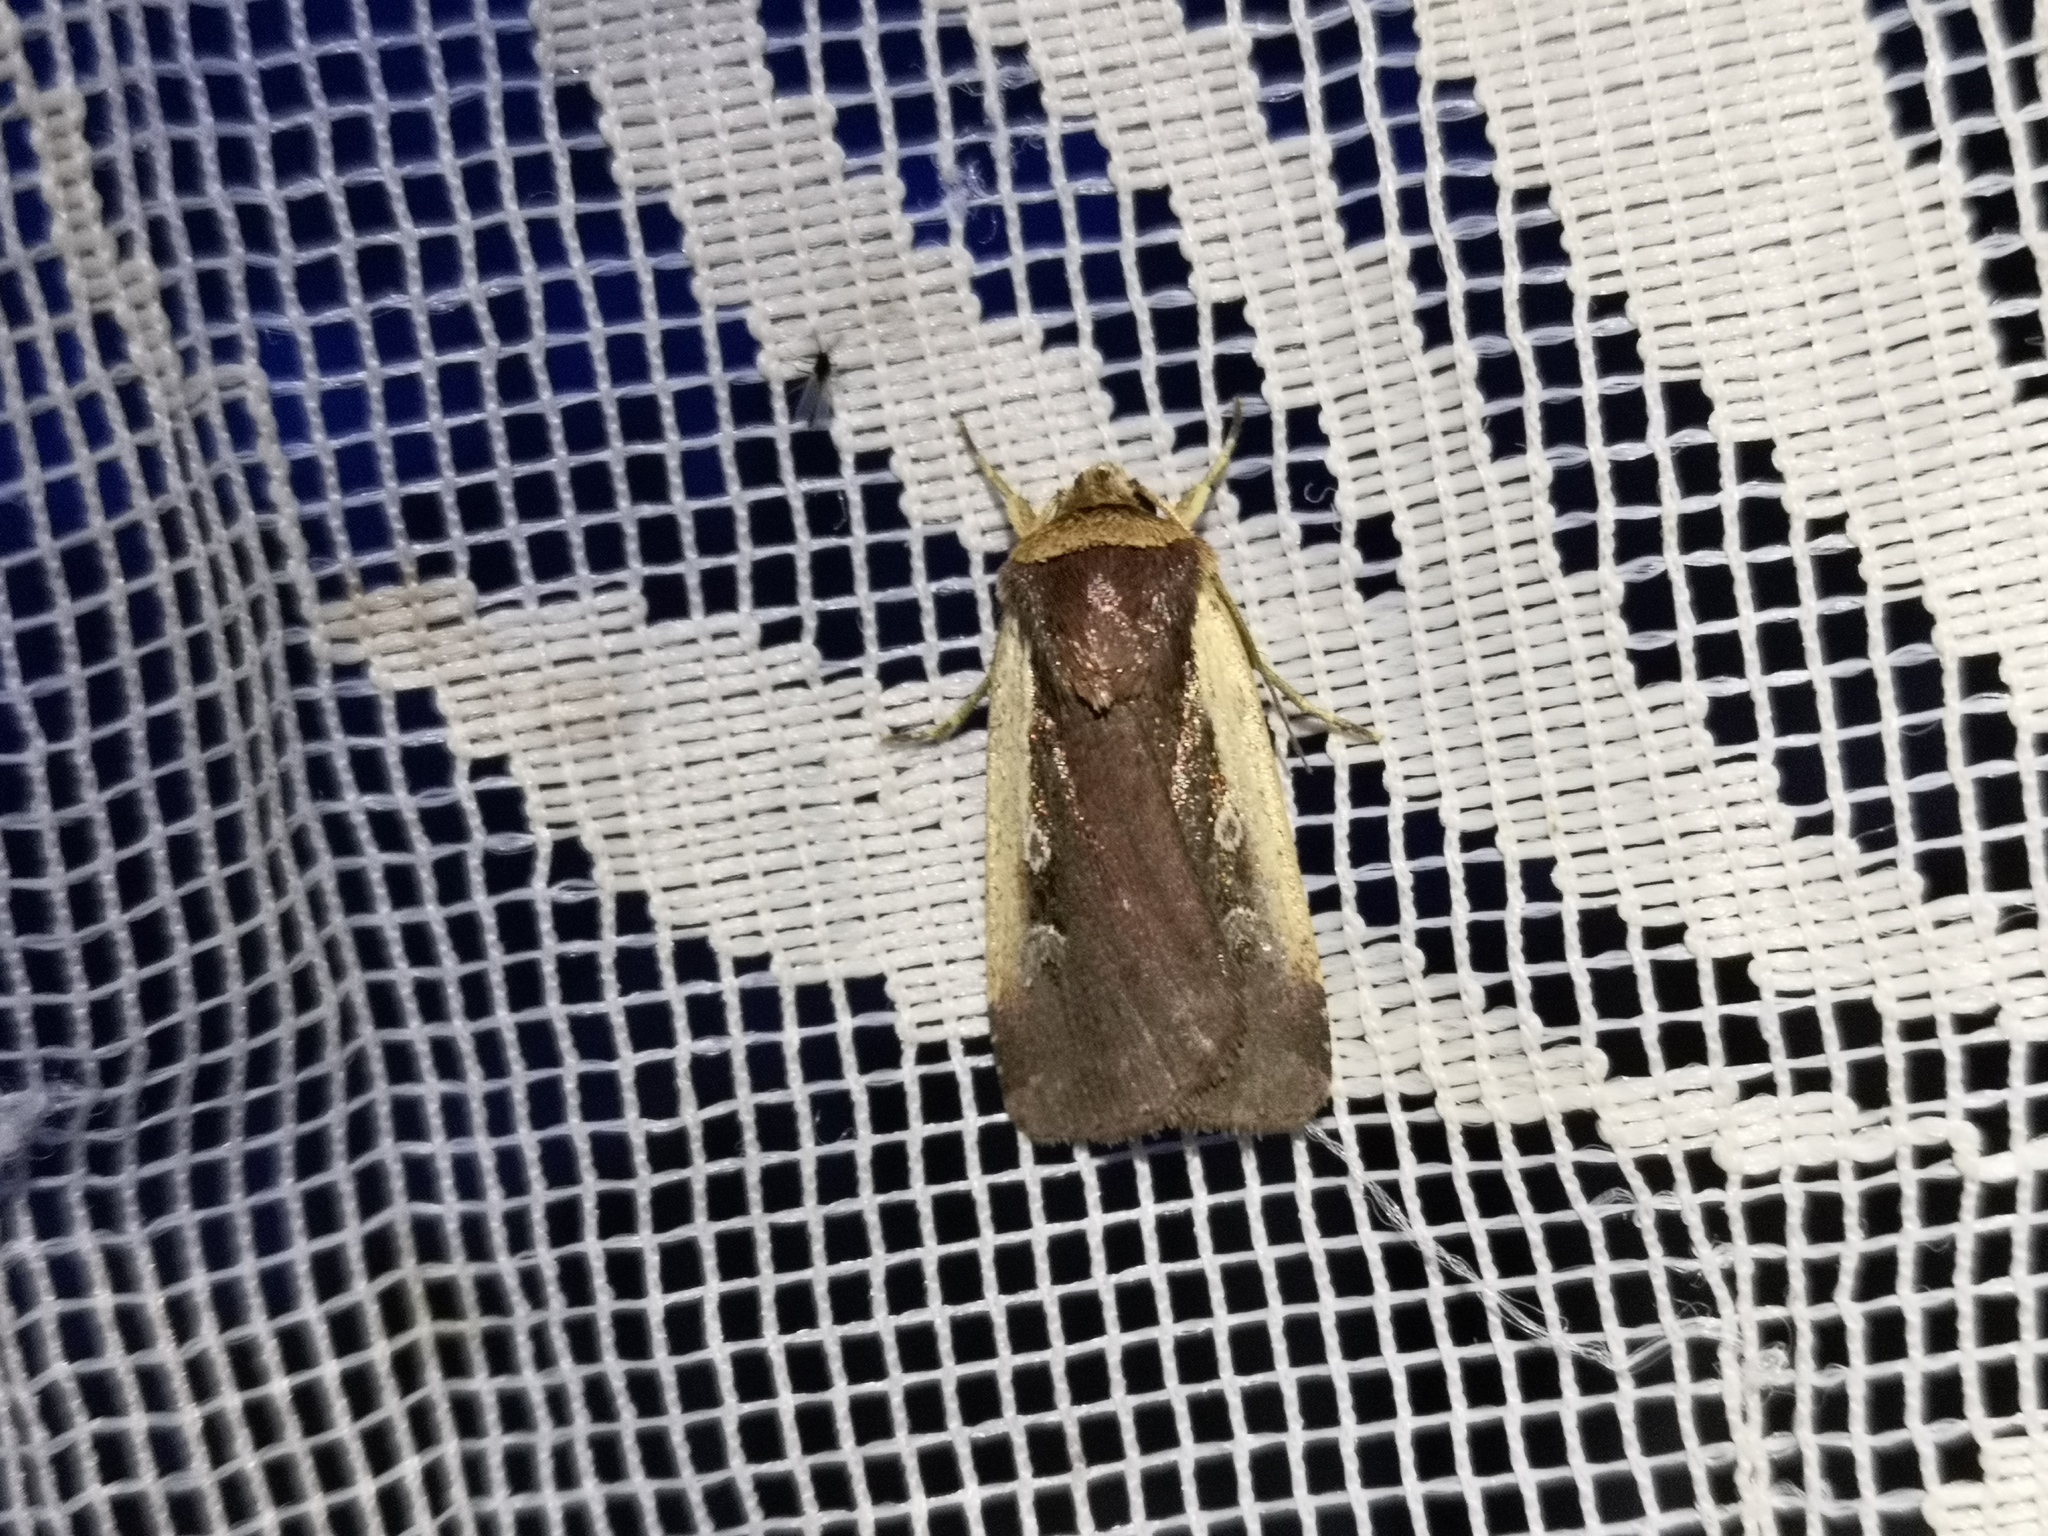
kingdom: Animalia
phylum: Arthropoda
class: Insecta
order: Lepidoptera
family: Noctuidae
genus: Ochropleura
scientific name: Ochropleura plecta
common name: Flame shoulder
